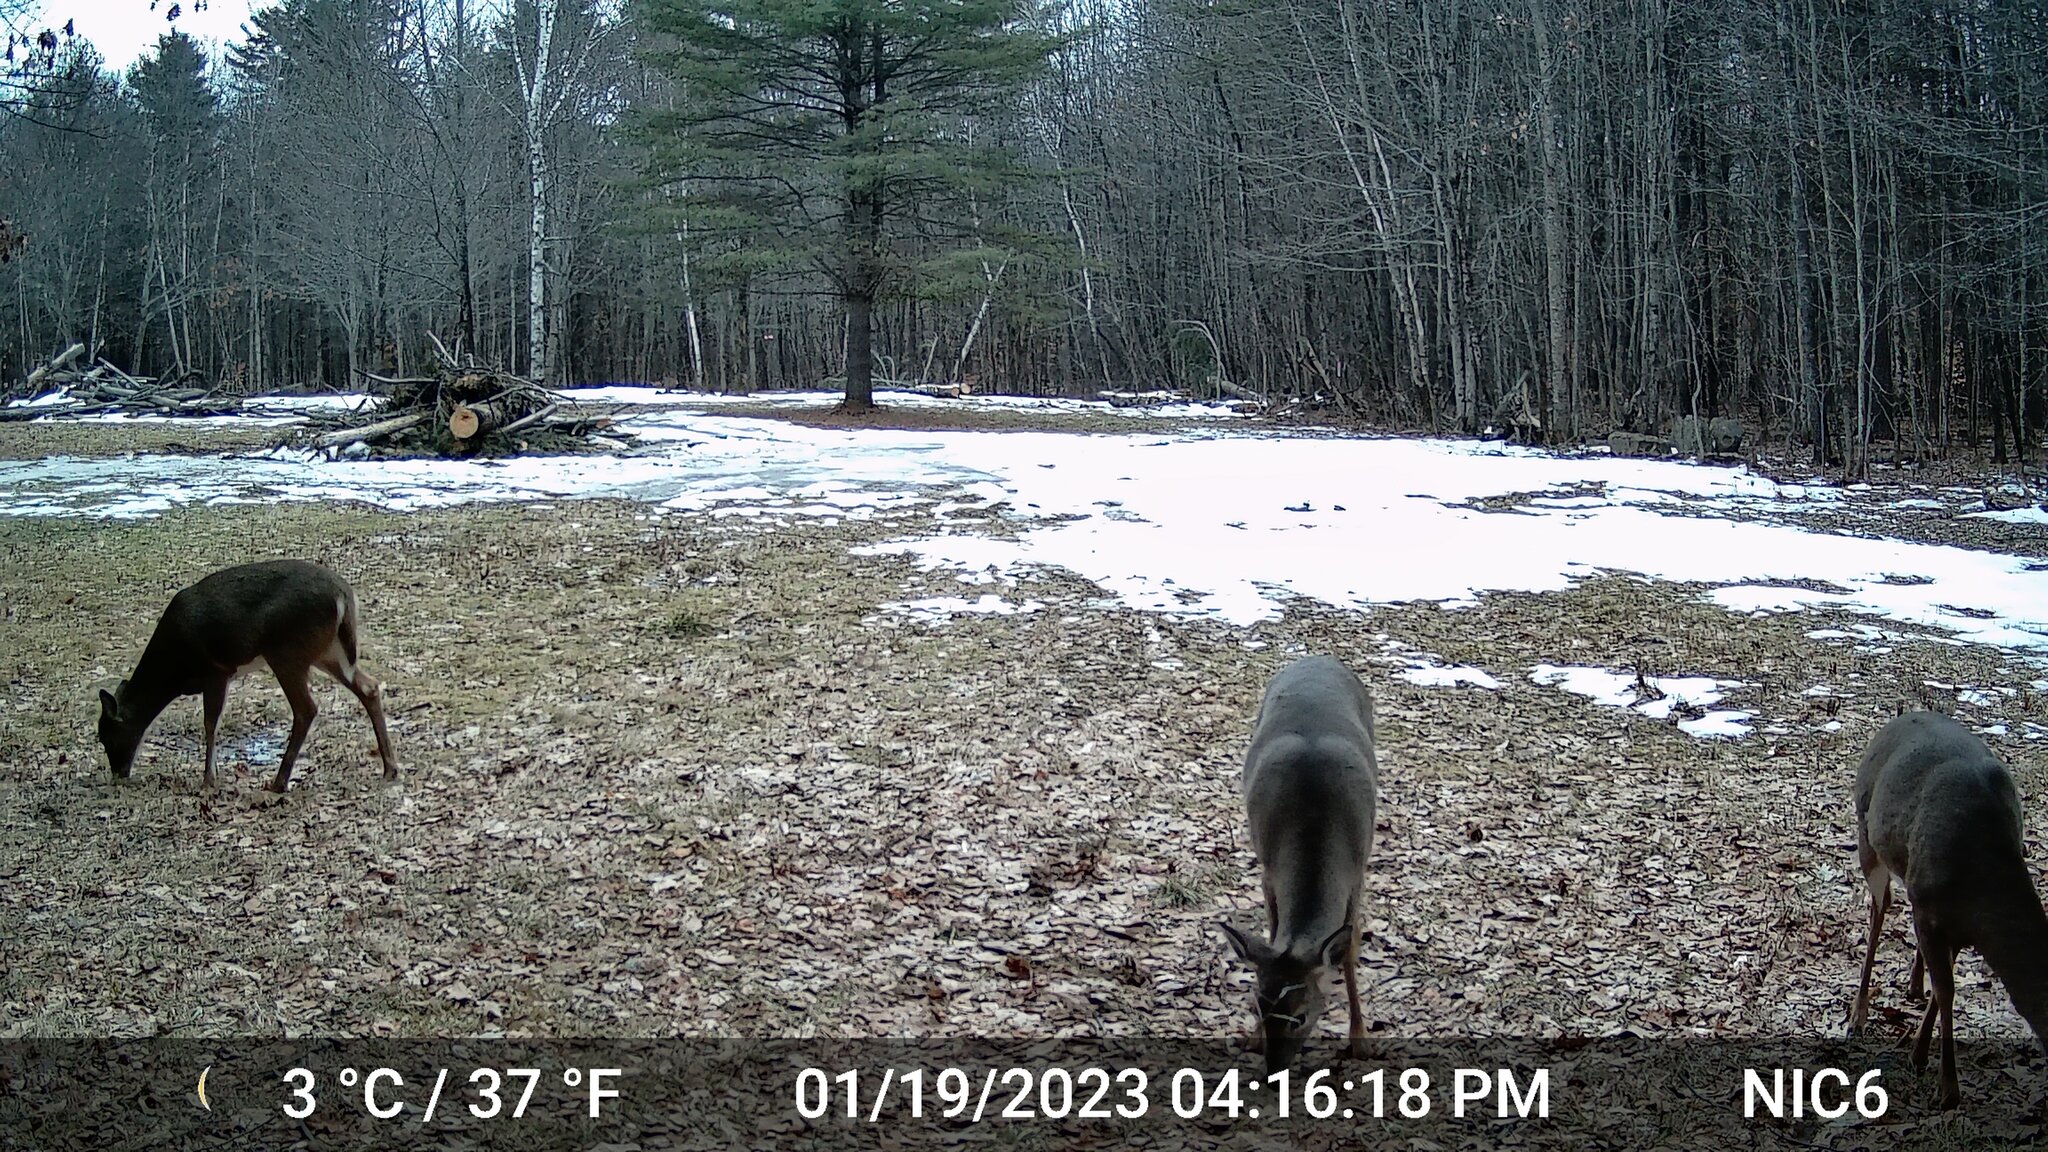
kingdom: Animalia
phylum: Chordata
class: Mammalia
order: Artiodactyla
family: Cervidae
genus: Odocoileus
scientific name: Odocoileus virginianus
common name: White-tailed deer
